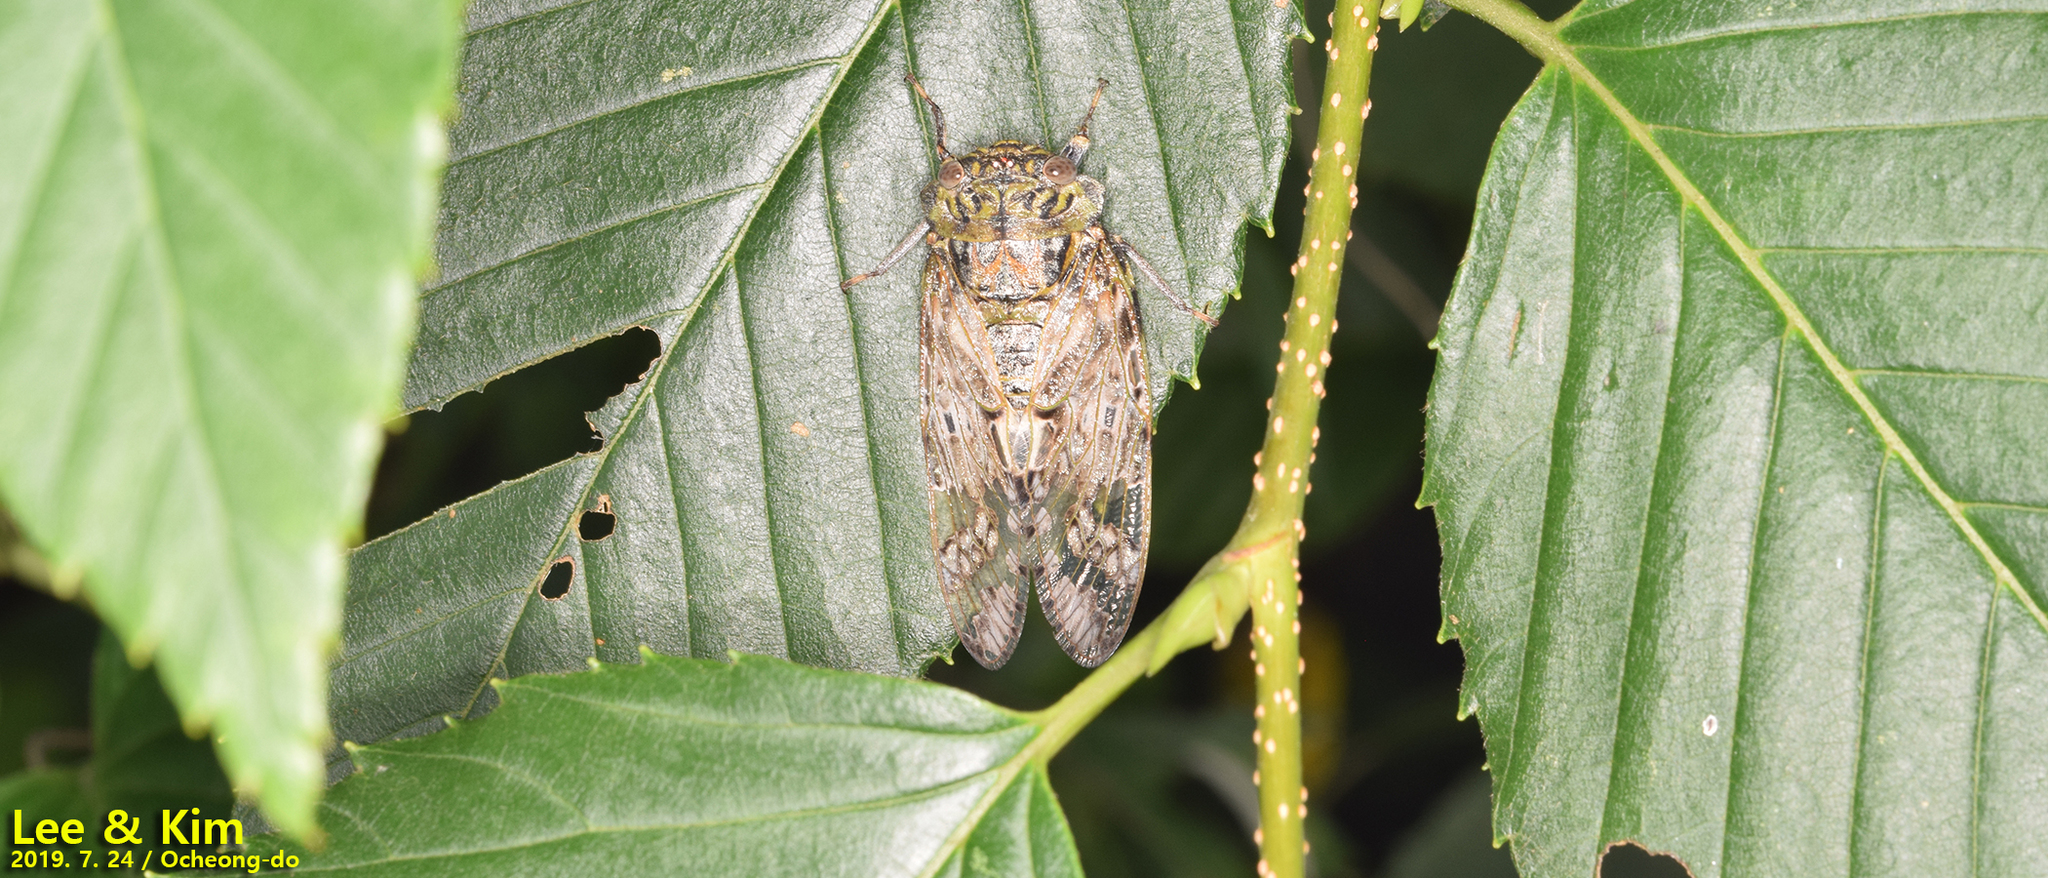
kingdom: Animalia
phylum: Arthropoda
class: Insecta
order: Hemiptera
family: Cicadidae
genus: Platypleura
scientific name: Platypleura kaempferi
